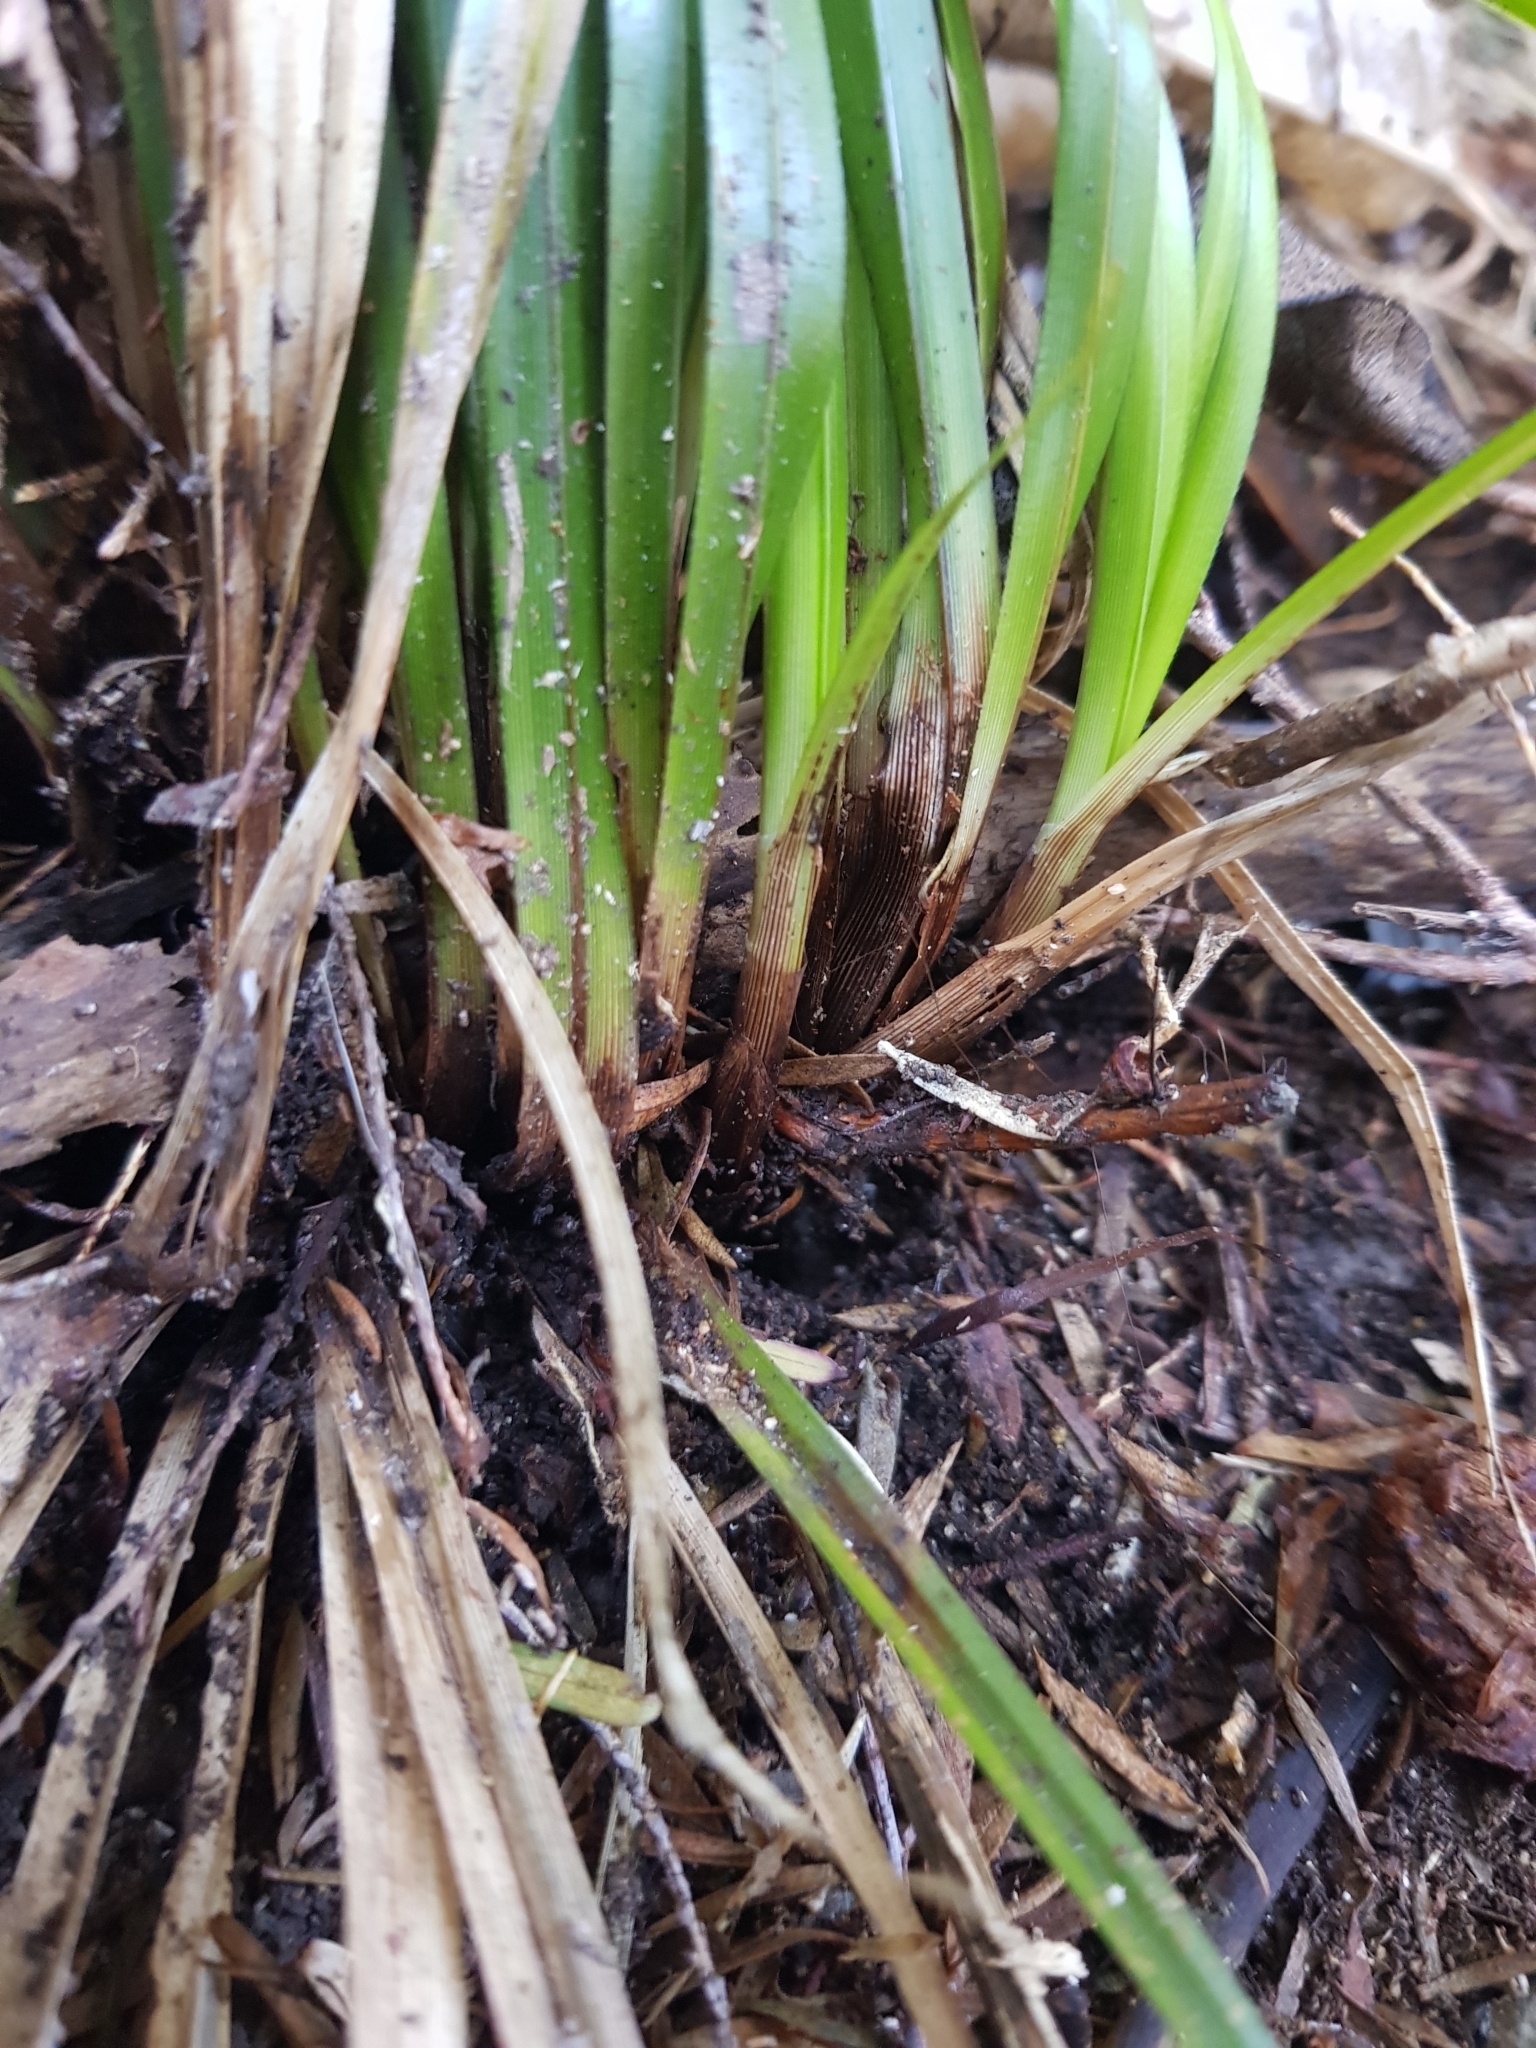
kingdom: Plantae
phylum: Tracheophyta
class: Liliopsida
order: Poales
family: Cyperaceae
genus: Carex
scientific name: Carex uncinata
